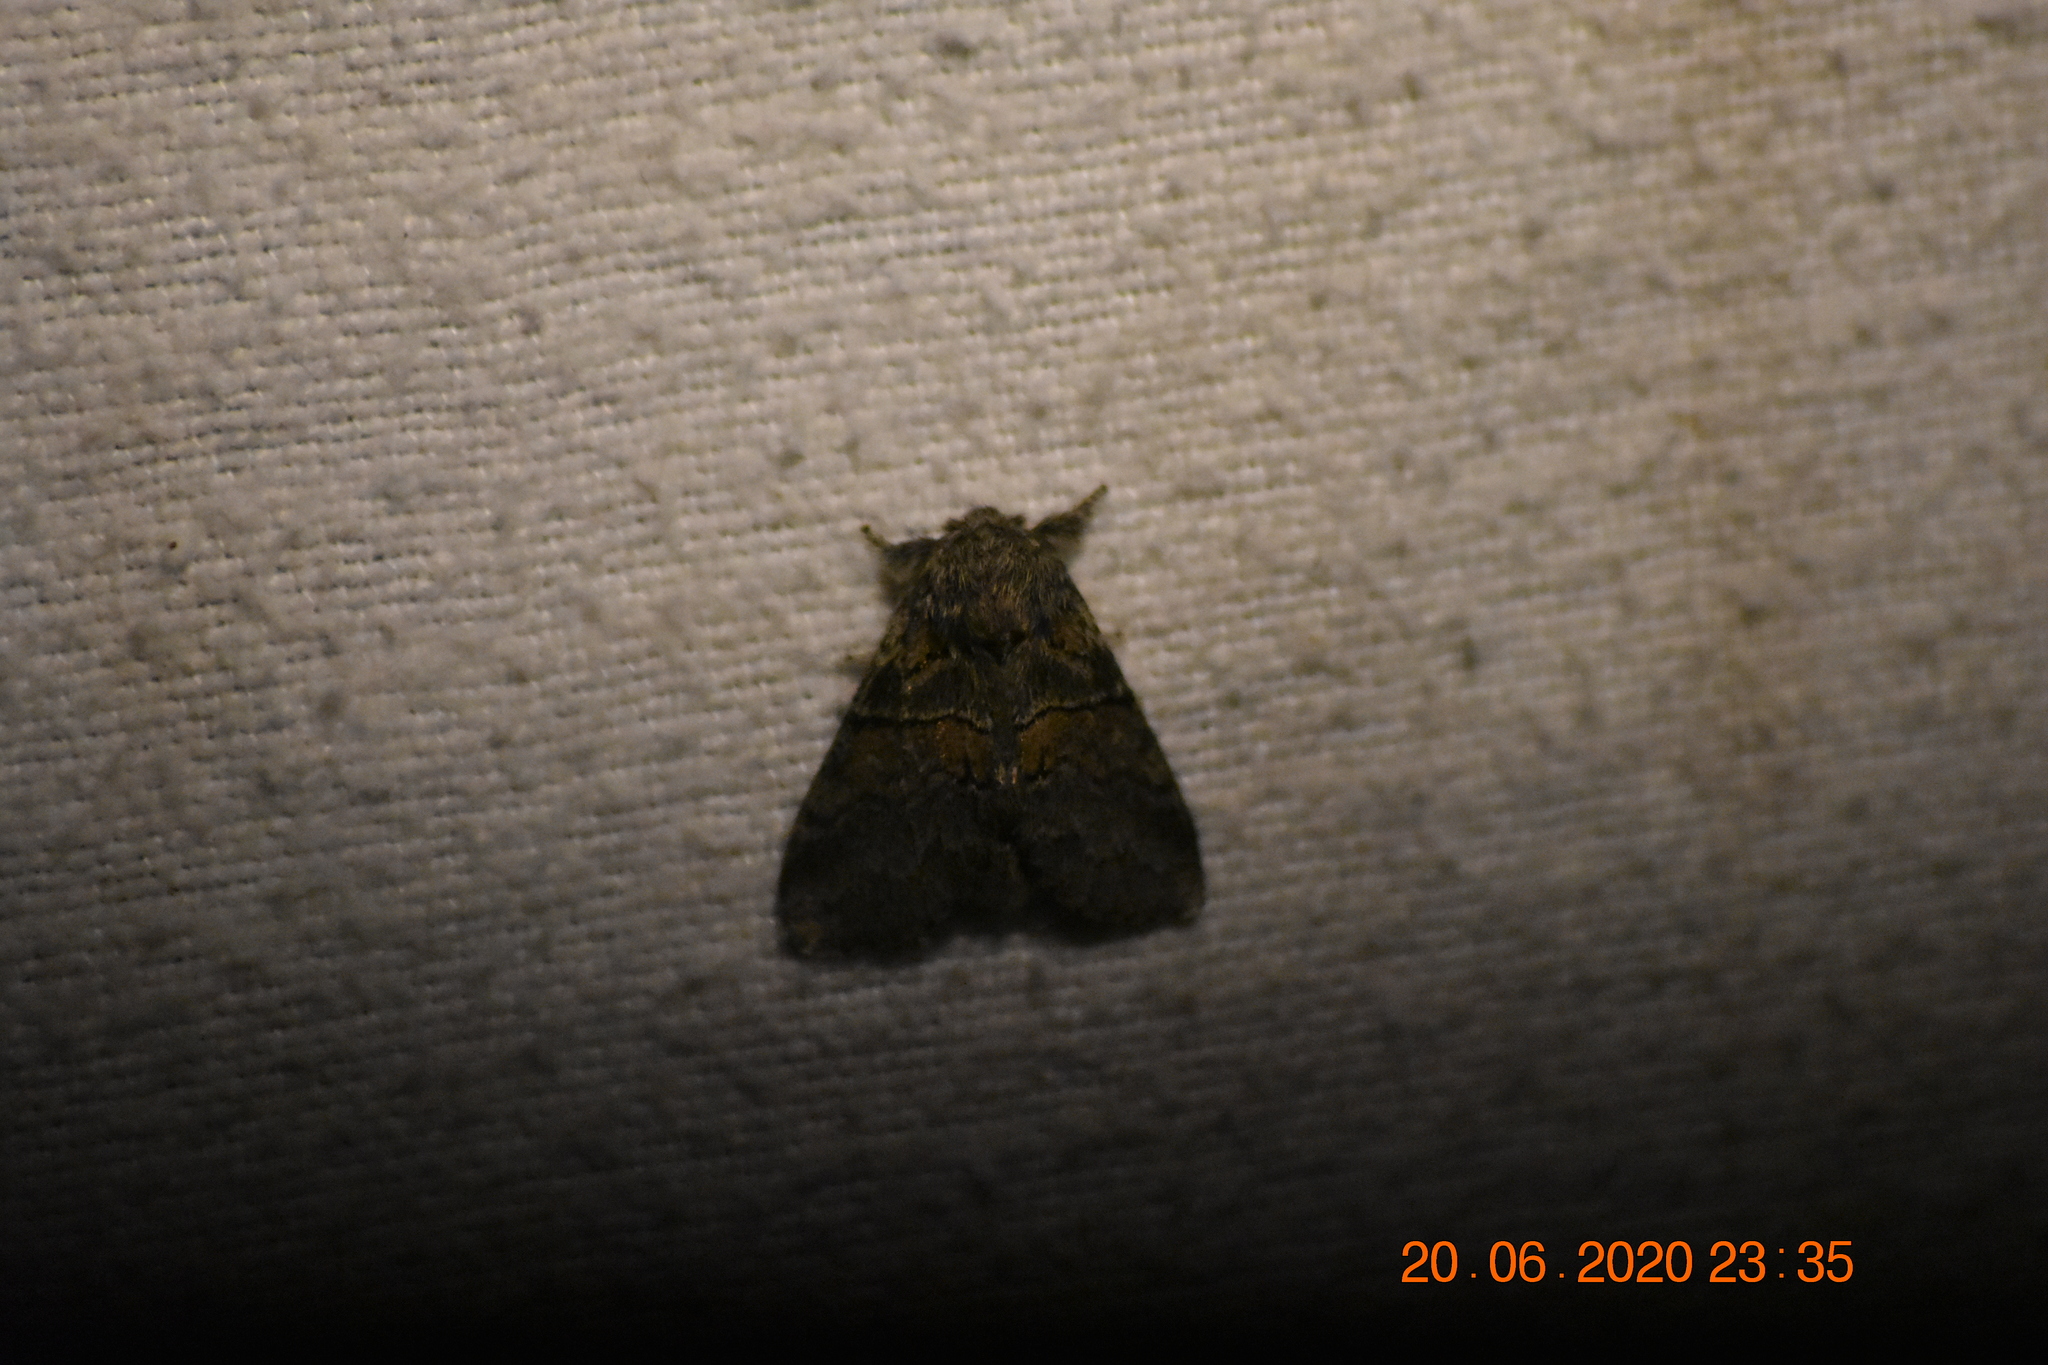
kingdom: Animalia
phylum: Arthropoda
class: Insecta
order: Lepidoptera
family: Notodontidae
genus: Gluphisia
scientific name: Gluphisia septentrionis
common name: Common gluphisia
